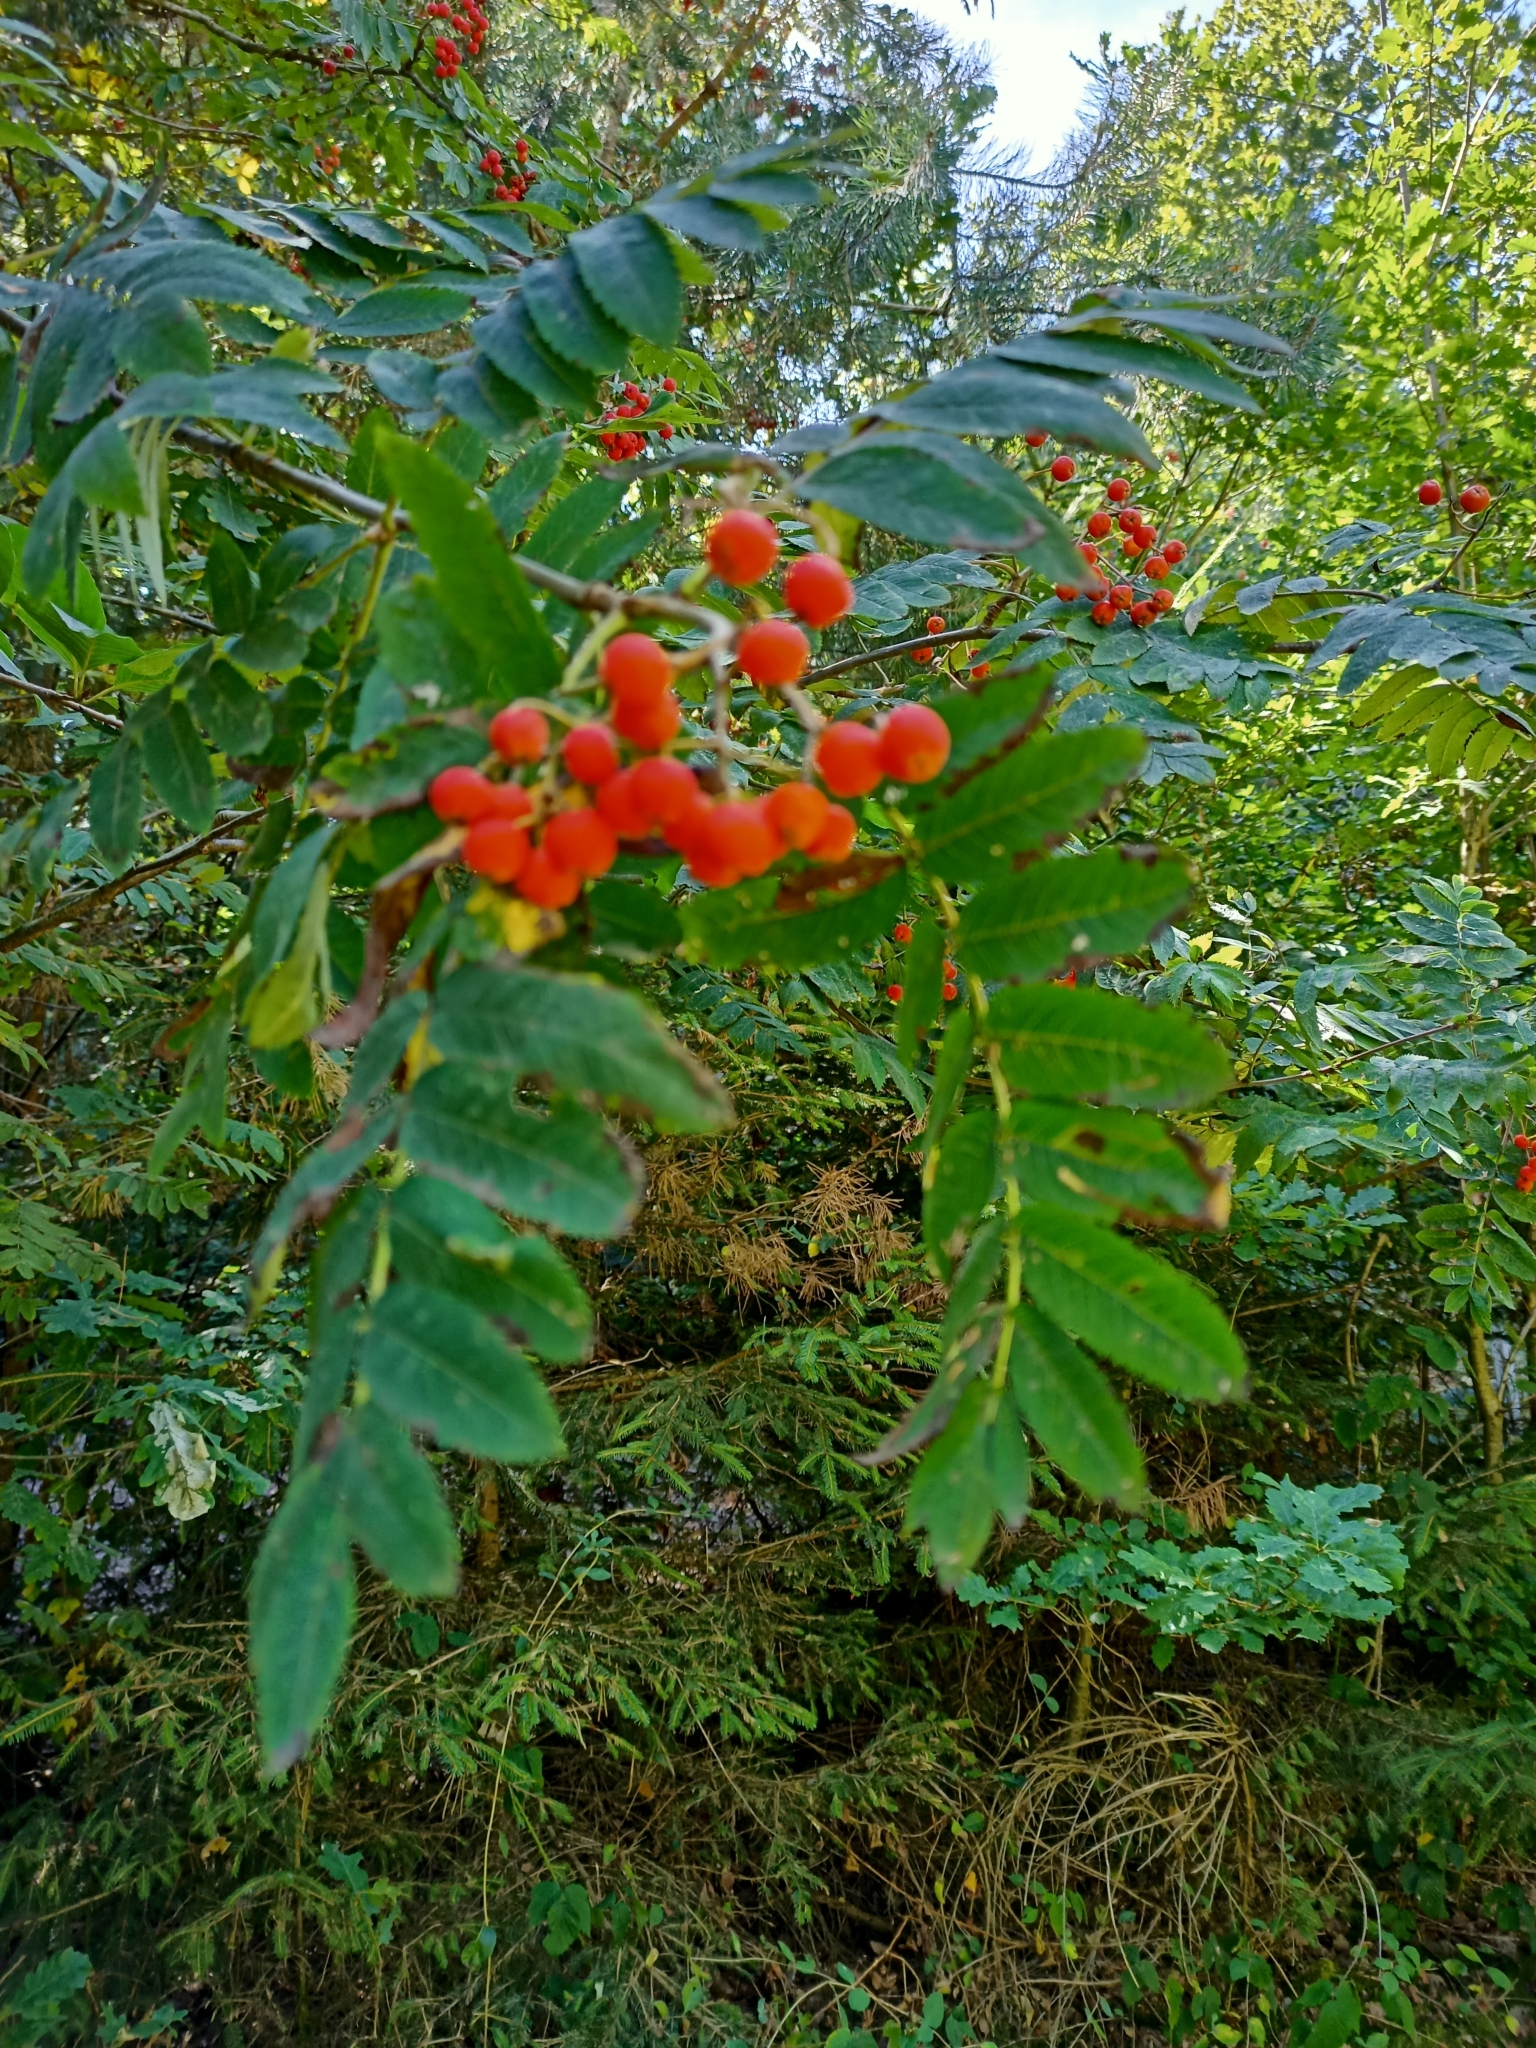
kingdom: Plantae
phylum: Tracheophyta
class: Magnoliopsida
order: Rosales
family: Rosaceae
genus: Sorbus
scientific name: Sorbus aucuparia
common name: Rowan
